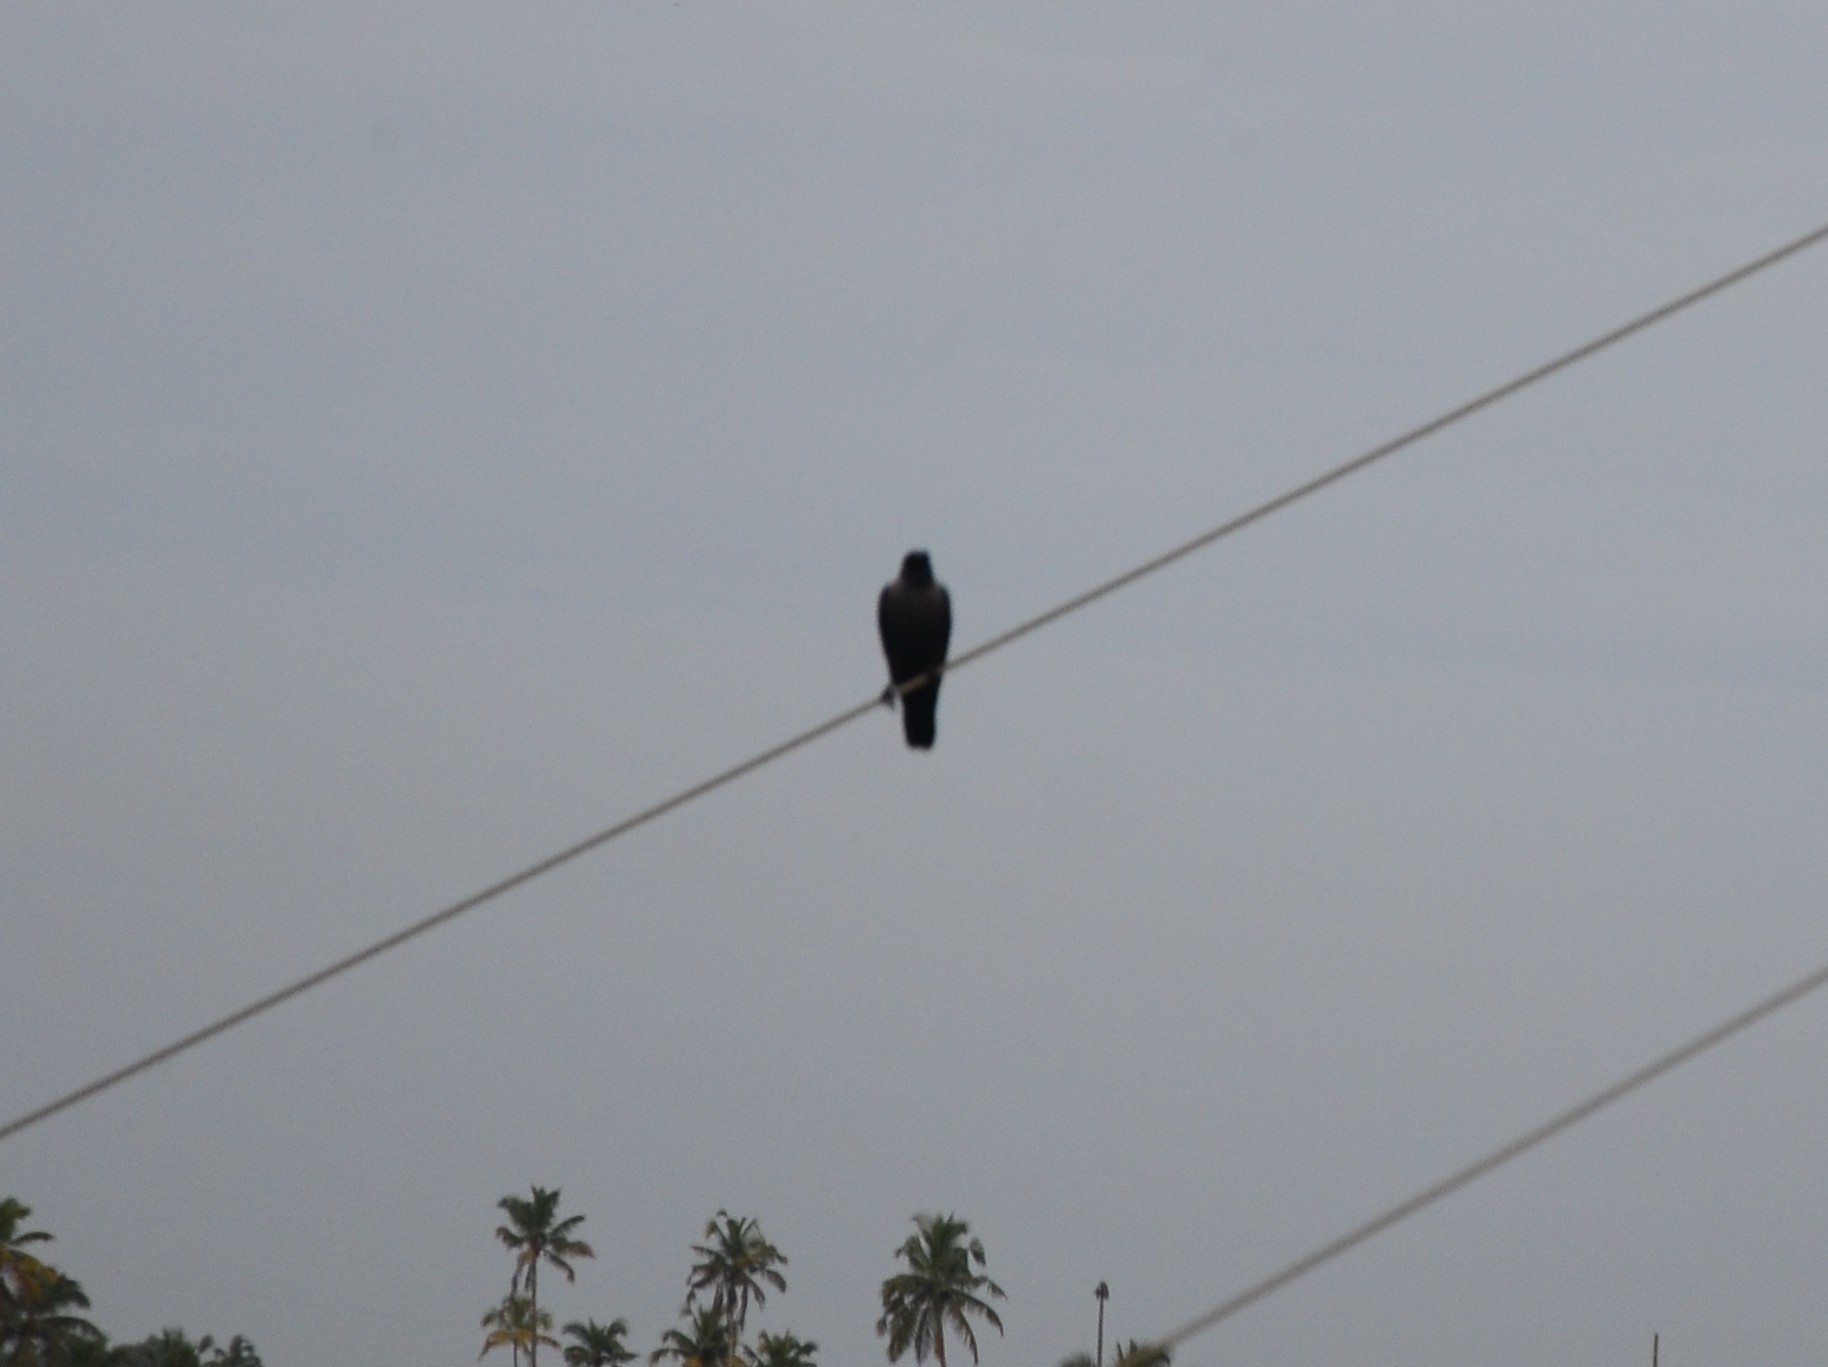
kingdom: Animalia
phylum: Chordata
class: Aves
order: Passeriformes
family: Corvidae
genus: Corvus
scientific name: Corvus splendens
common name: House crow
